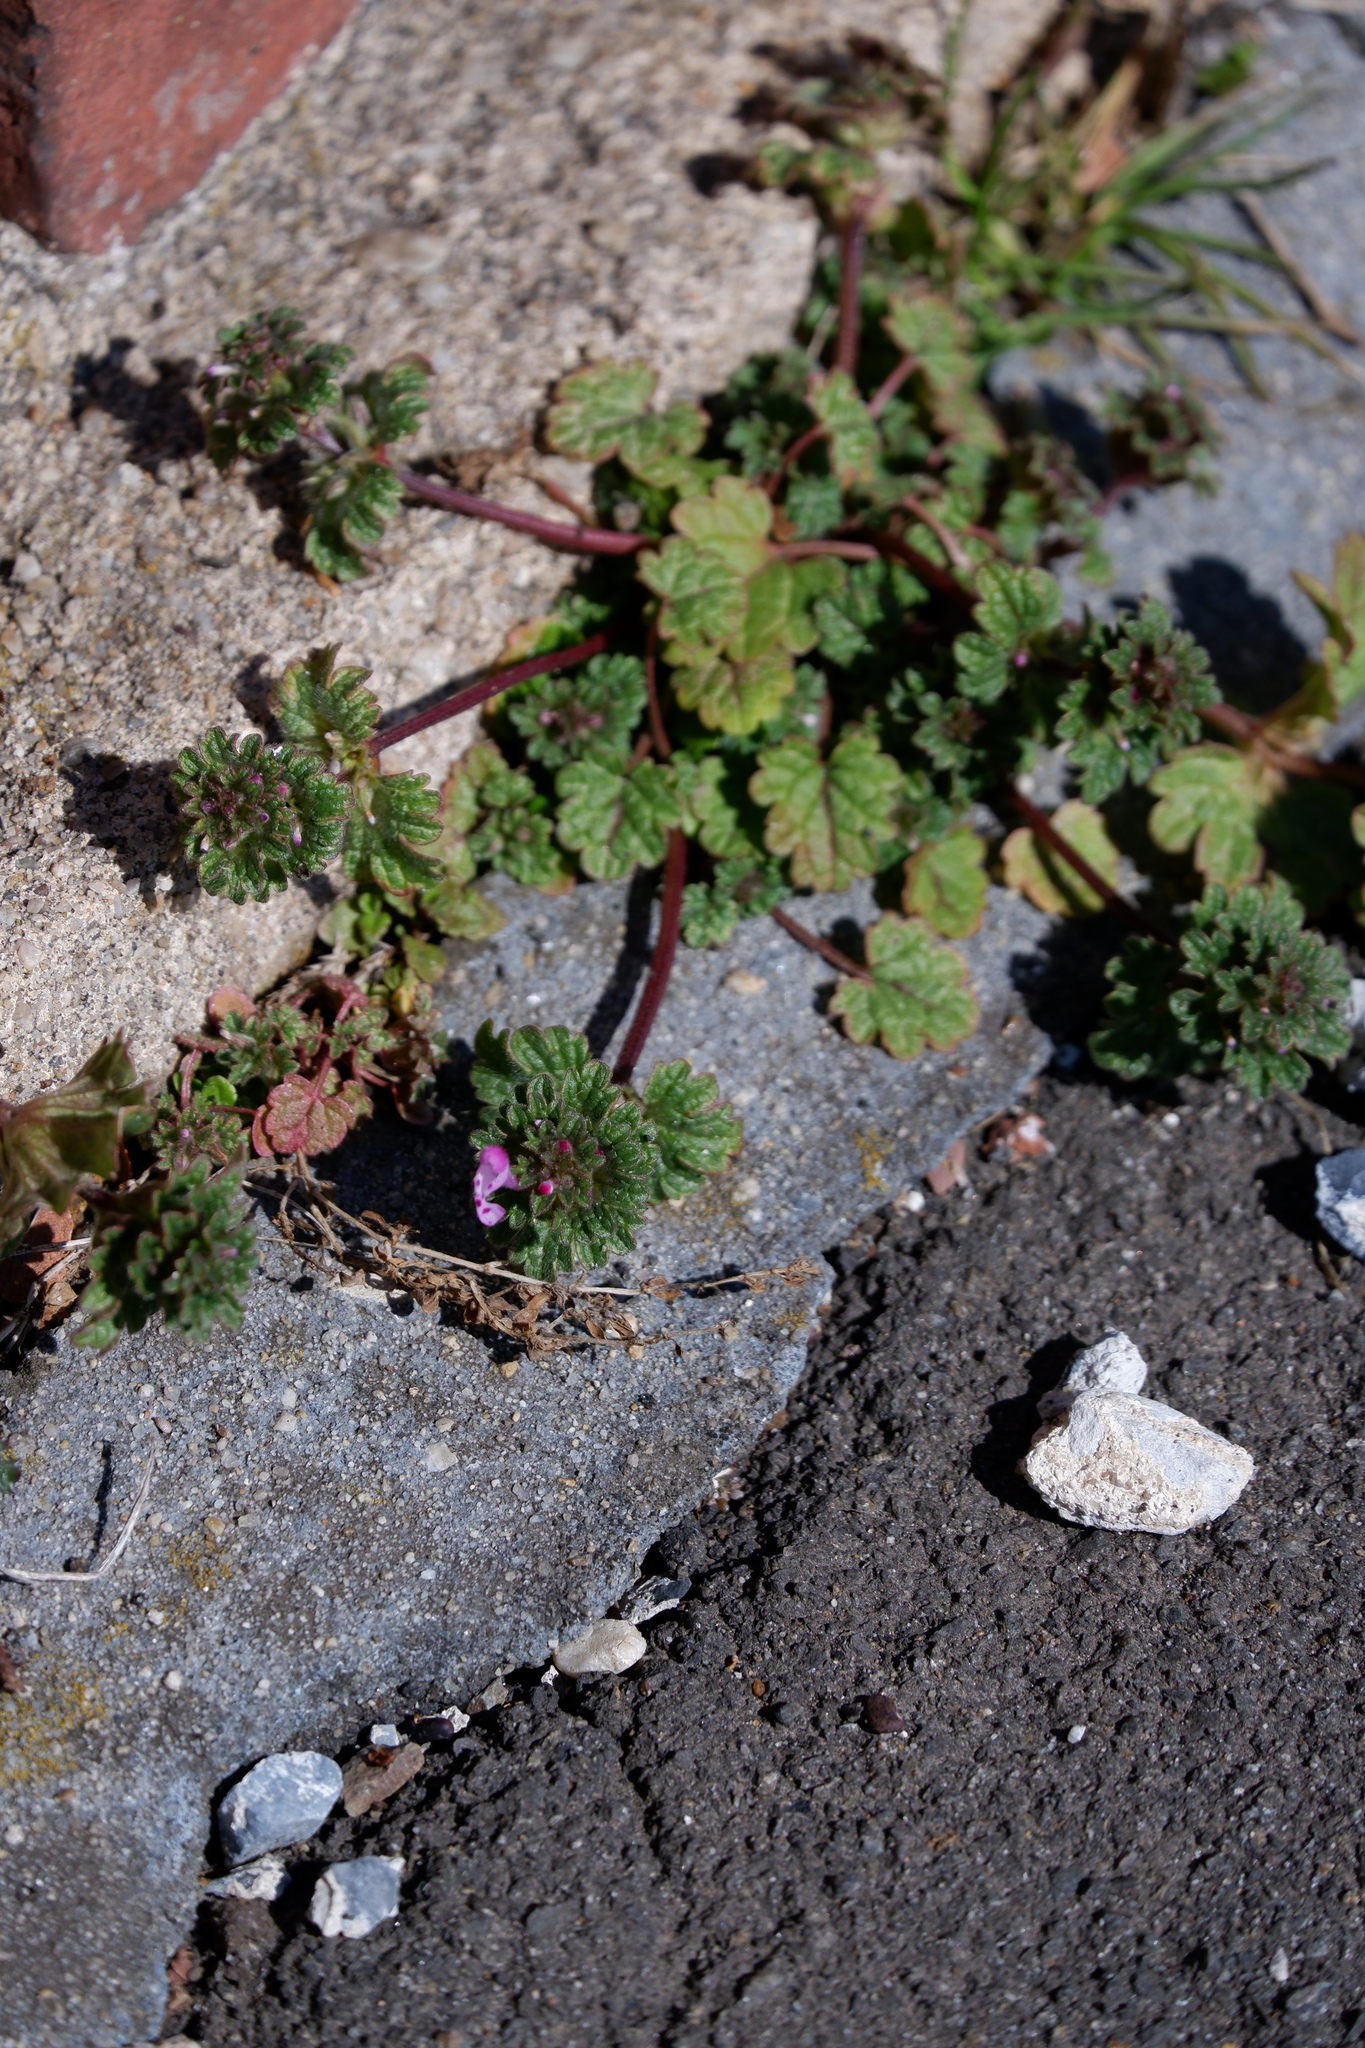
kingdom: Plantae
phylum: Tracheophyta
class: Magnoliopsida
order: Lamiales
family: Lamiaceae
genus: Lamium
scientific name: Lamium amplexicaule
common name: Henbit dead-nettle
